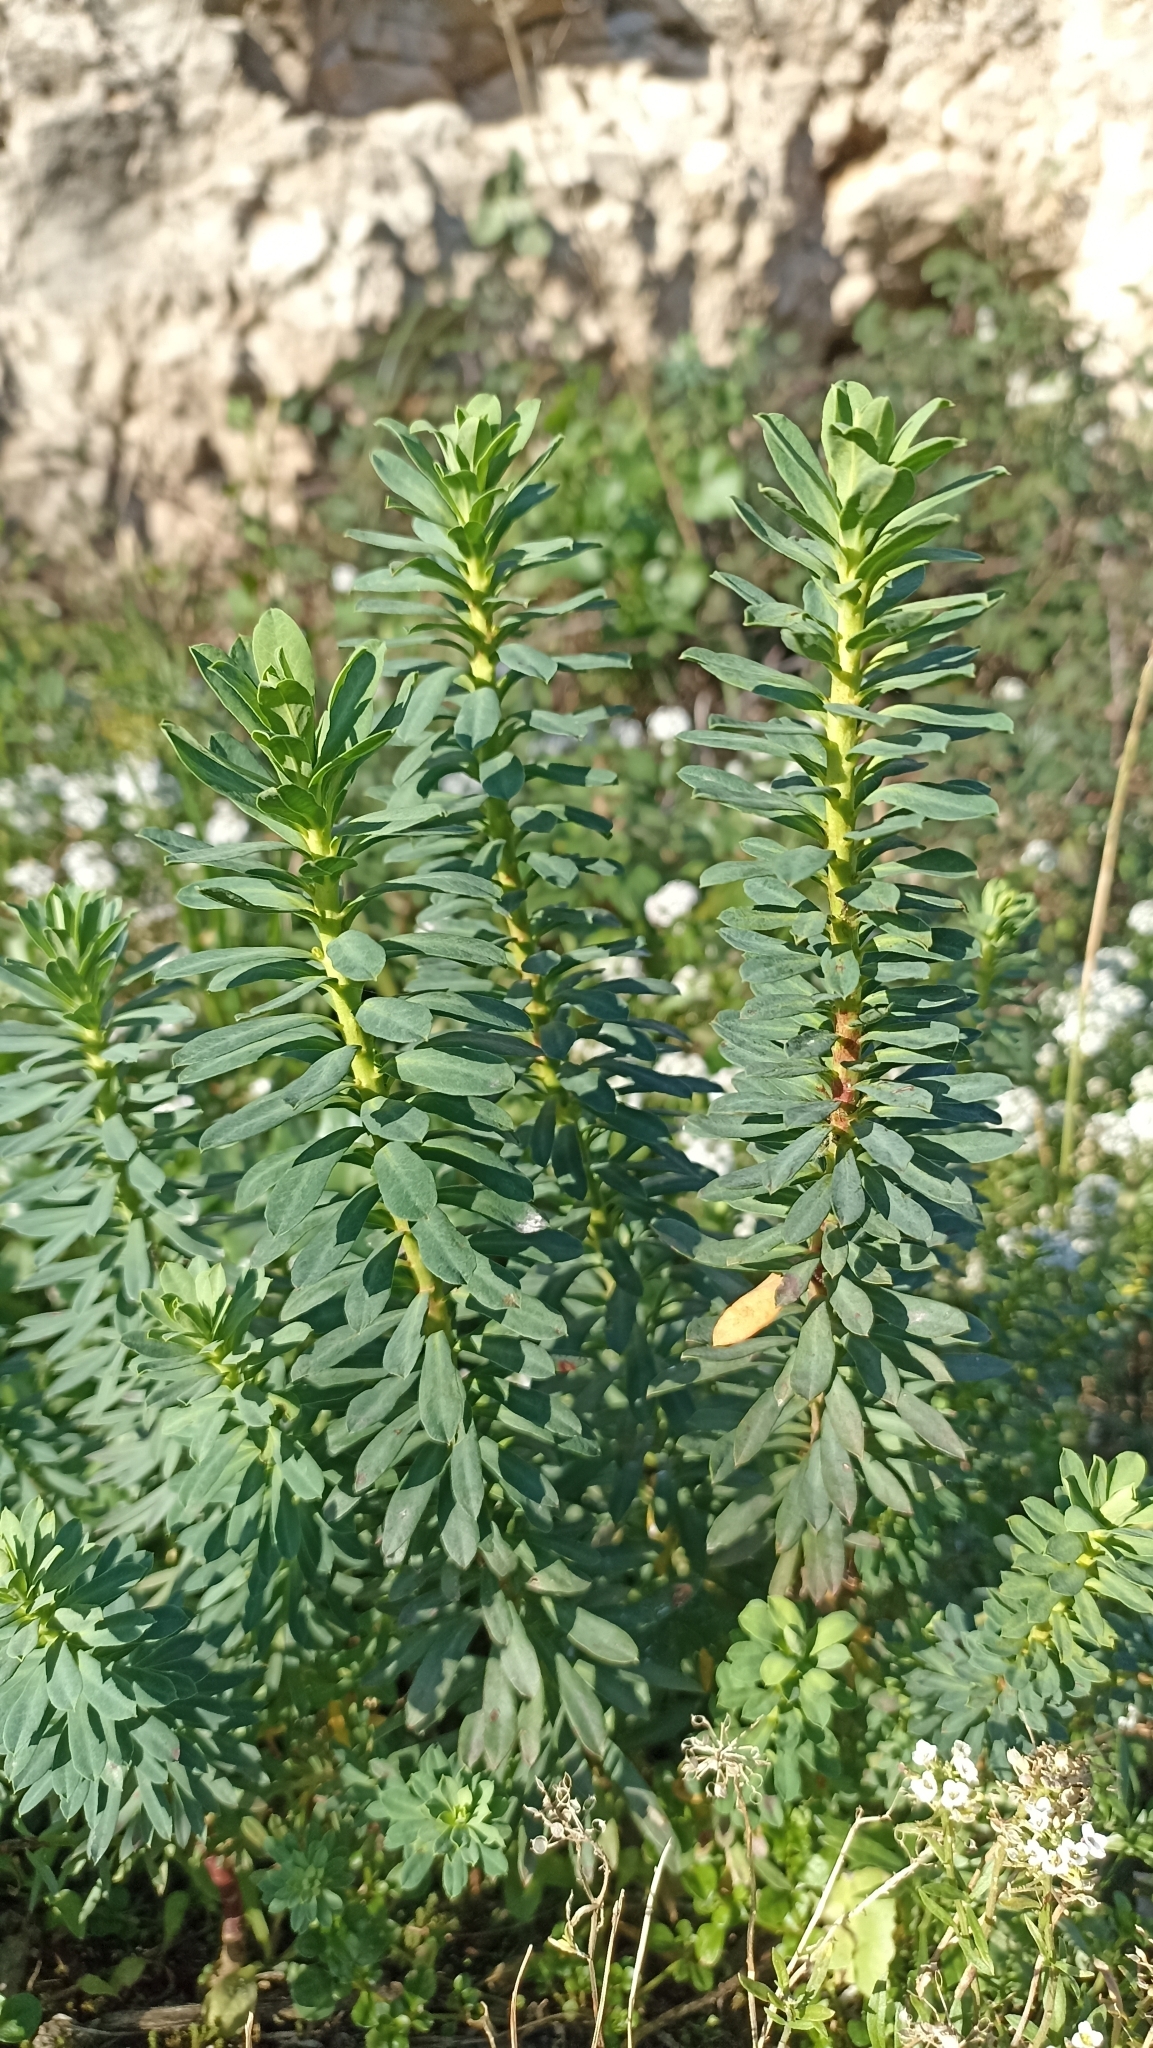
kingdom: Plantae
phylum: Tracheophyta
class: Magnoliopsida
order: Malpighiales
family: Euphorbiaceae
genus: Euphorbia
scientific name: Euphorbia segetalis
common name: Corn spurge
